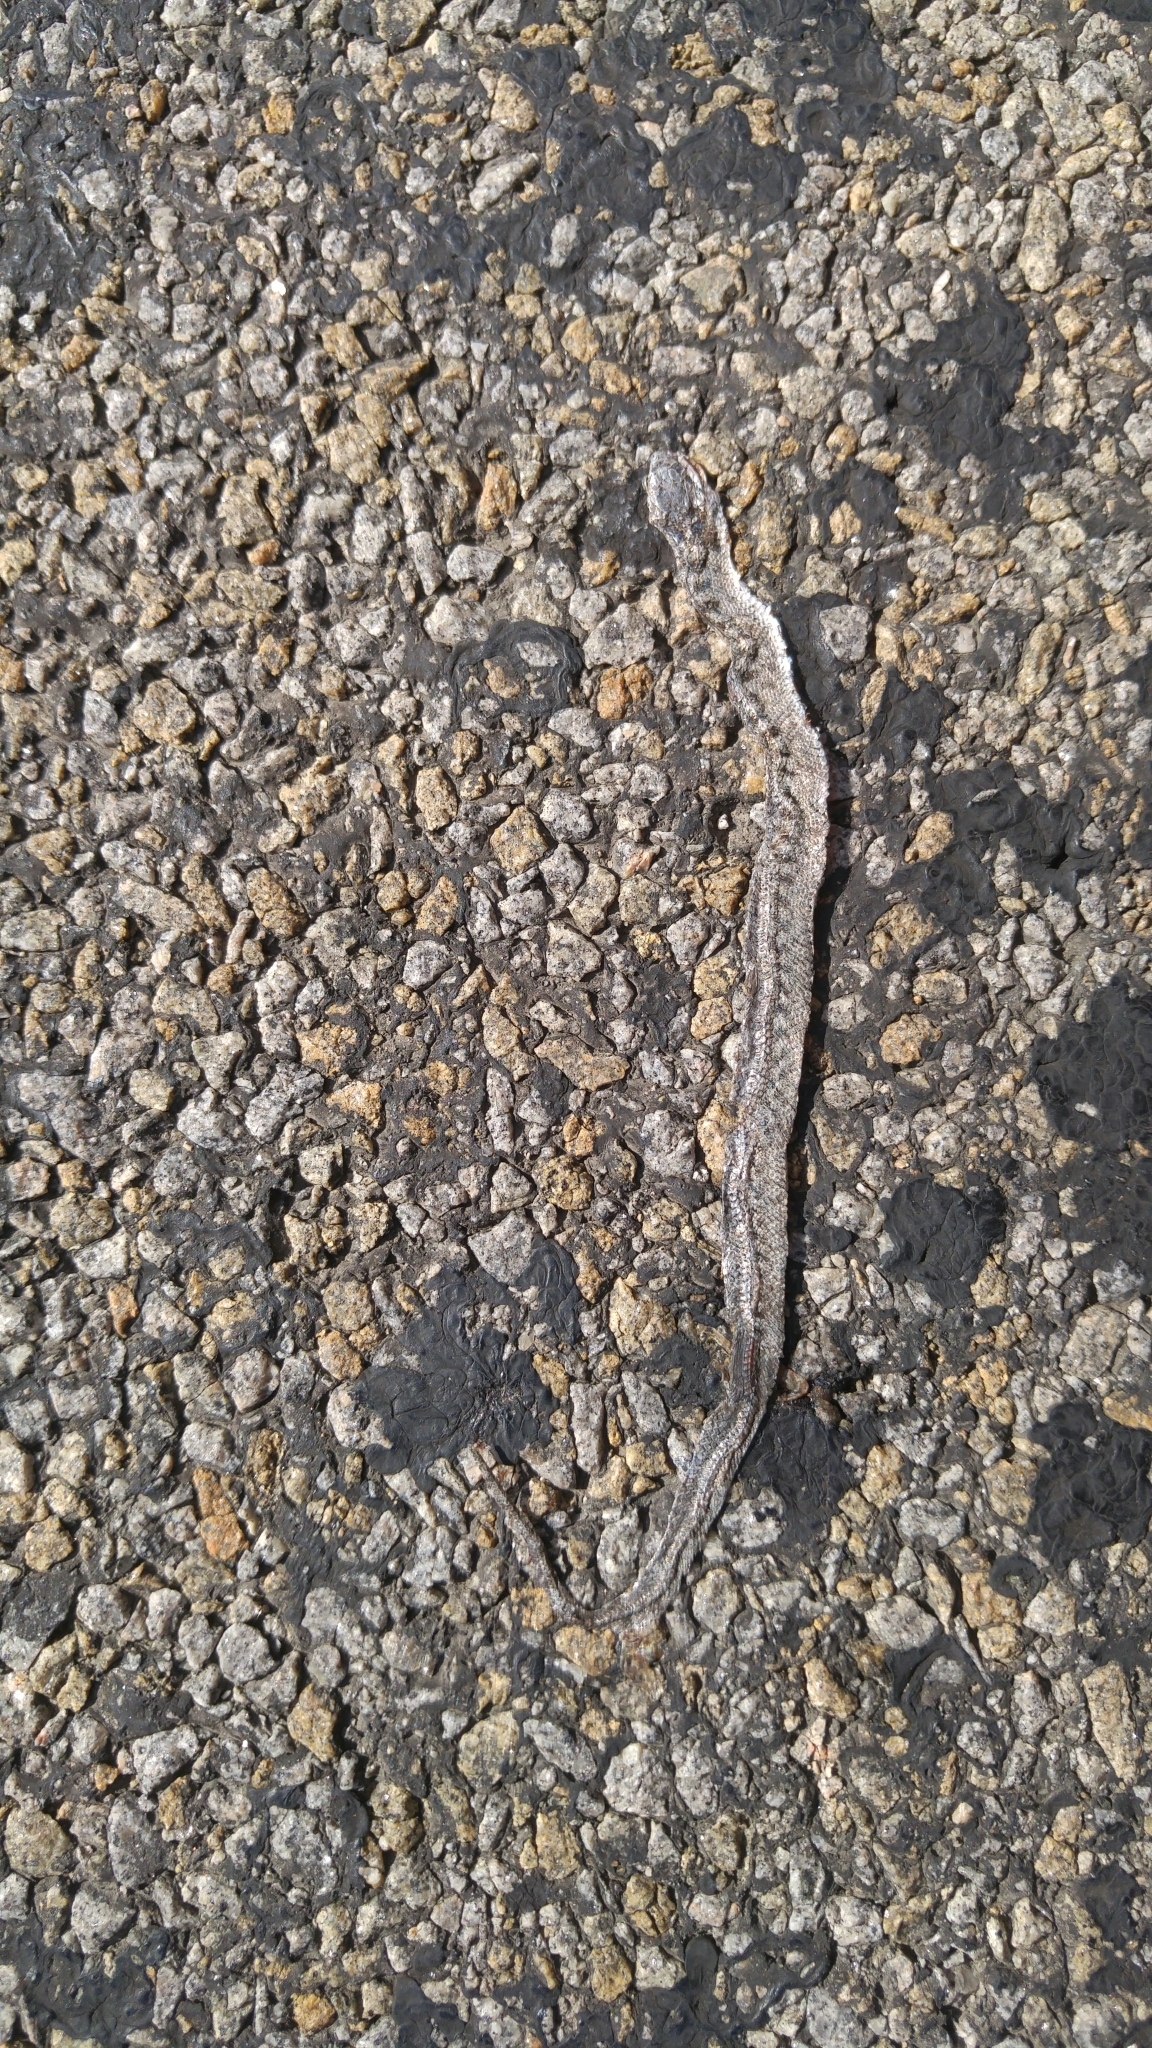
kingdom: Animalia
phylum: Chordata
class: Squamata
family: Colubridae
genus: Coronella
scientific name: Coronella girondica
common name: Southern smooth snake
